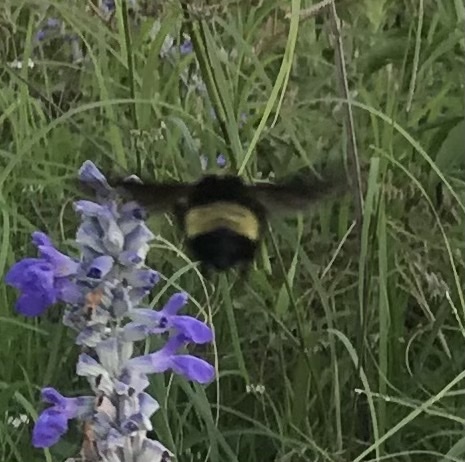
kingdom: Animalia
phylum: Arthropoda
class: Insecta
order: Hymenoptera
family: Apidae
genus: Bombus
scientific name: Bombus pensylvanicus
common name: Bumble bee
